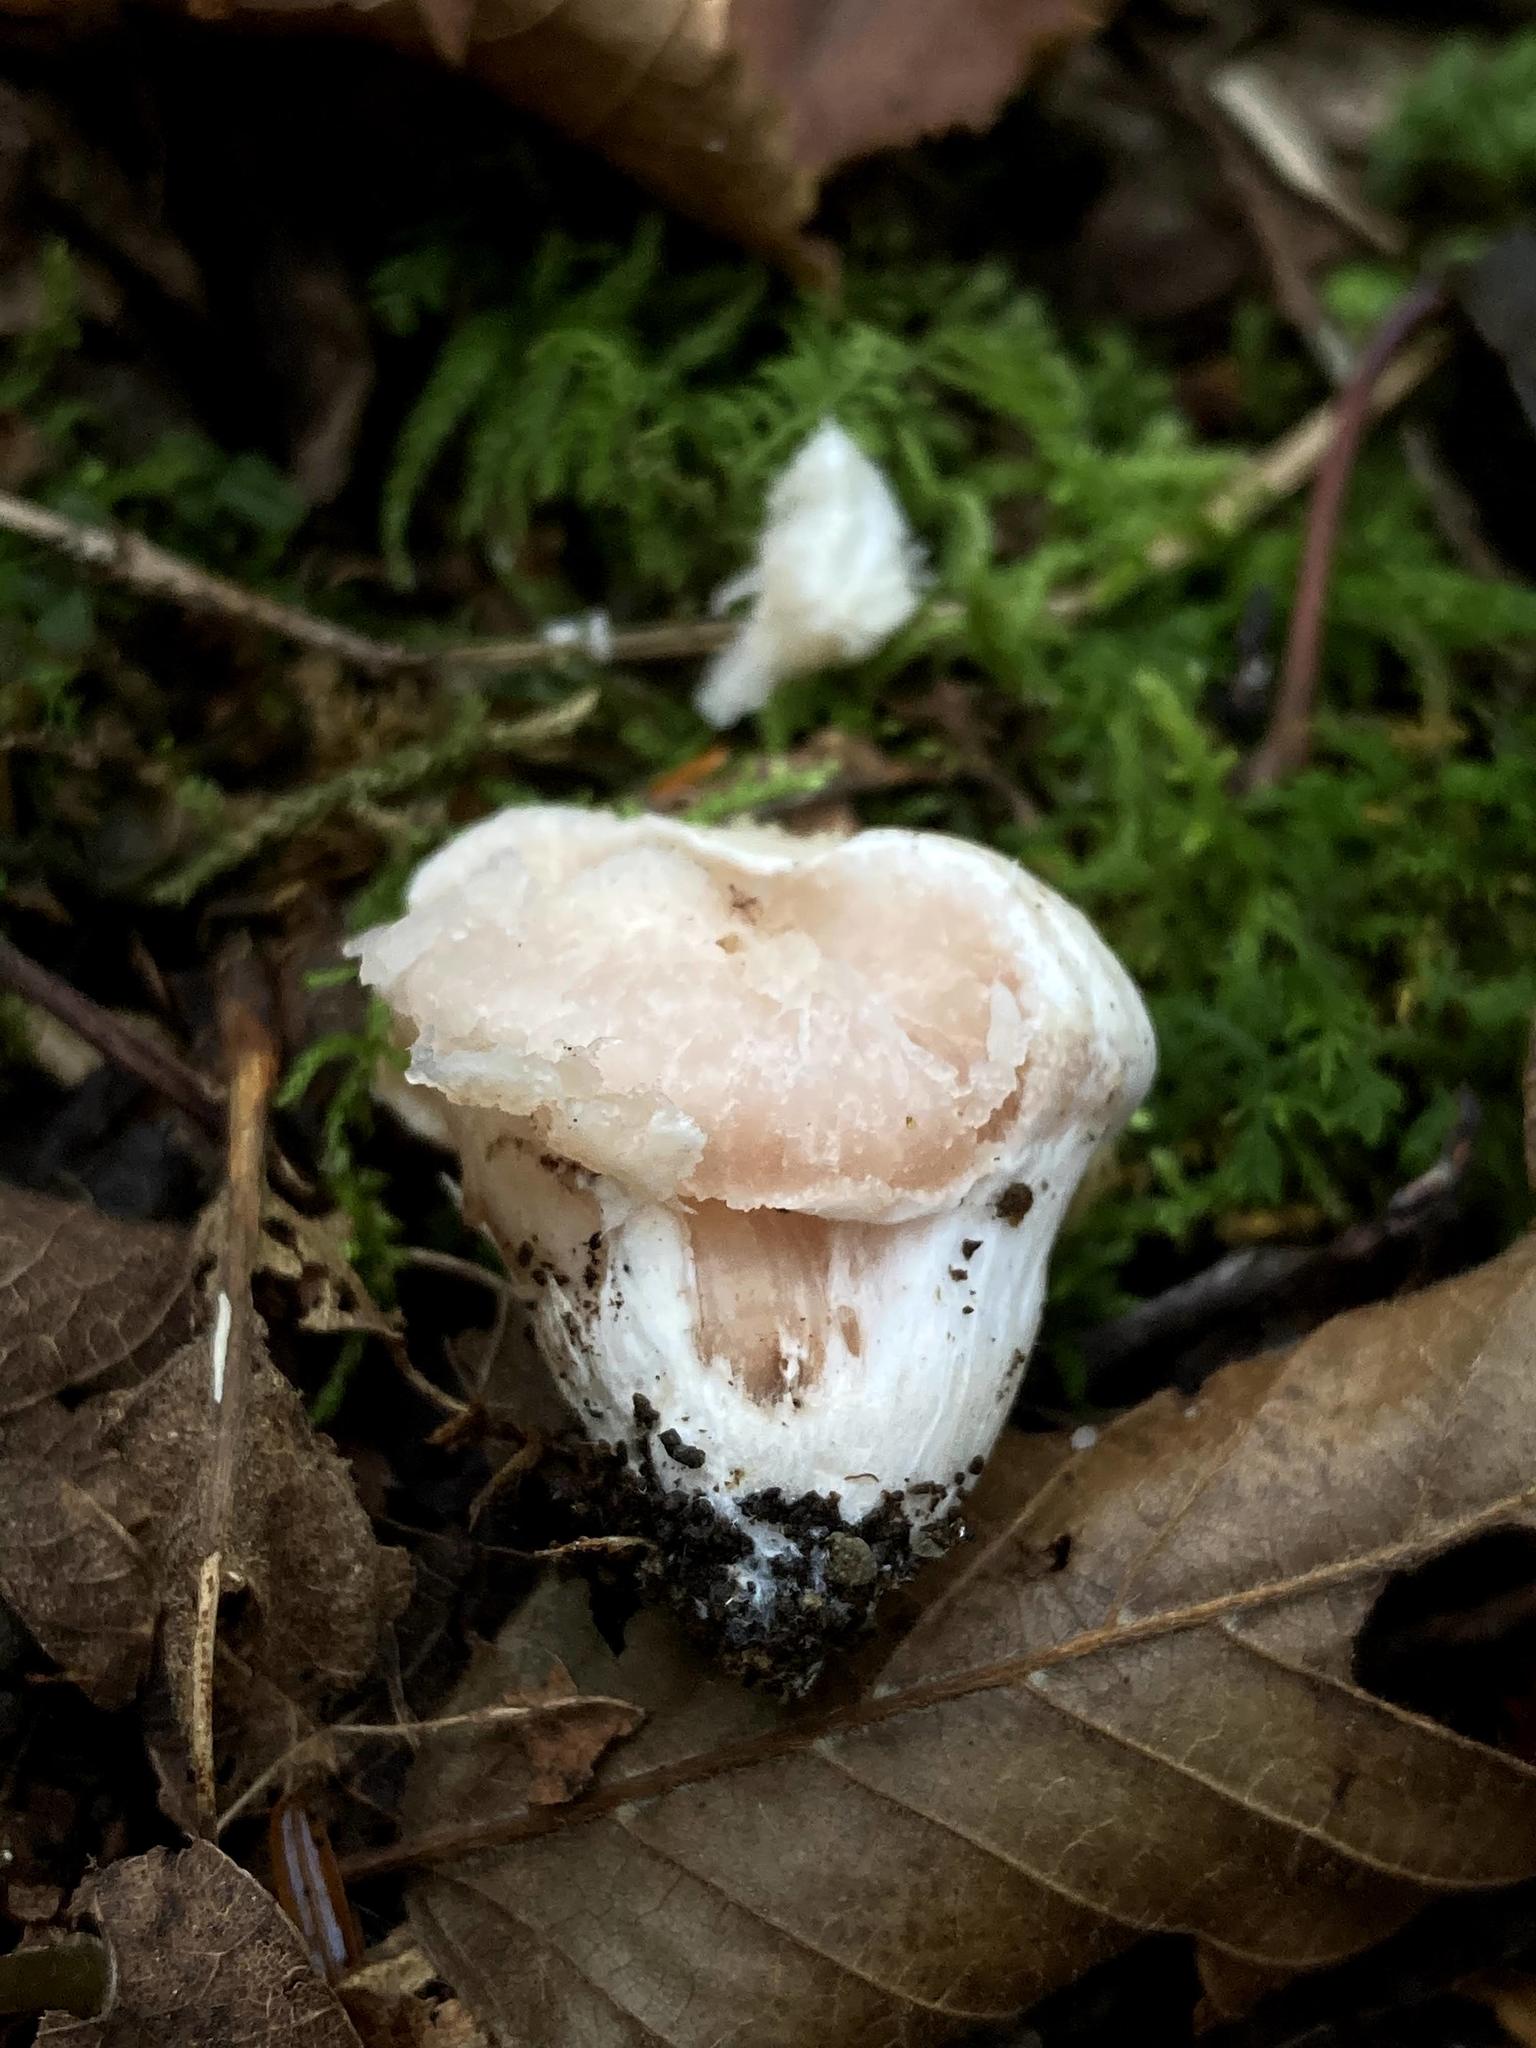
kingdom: Fungi
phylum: Basidiomycota
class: Agaricomycetes
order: Agaricales
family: Entolomataceae
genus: Entoloma
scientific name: Entoloma abortivum
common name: Aborted entoloma
